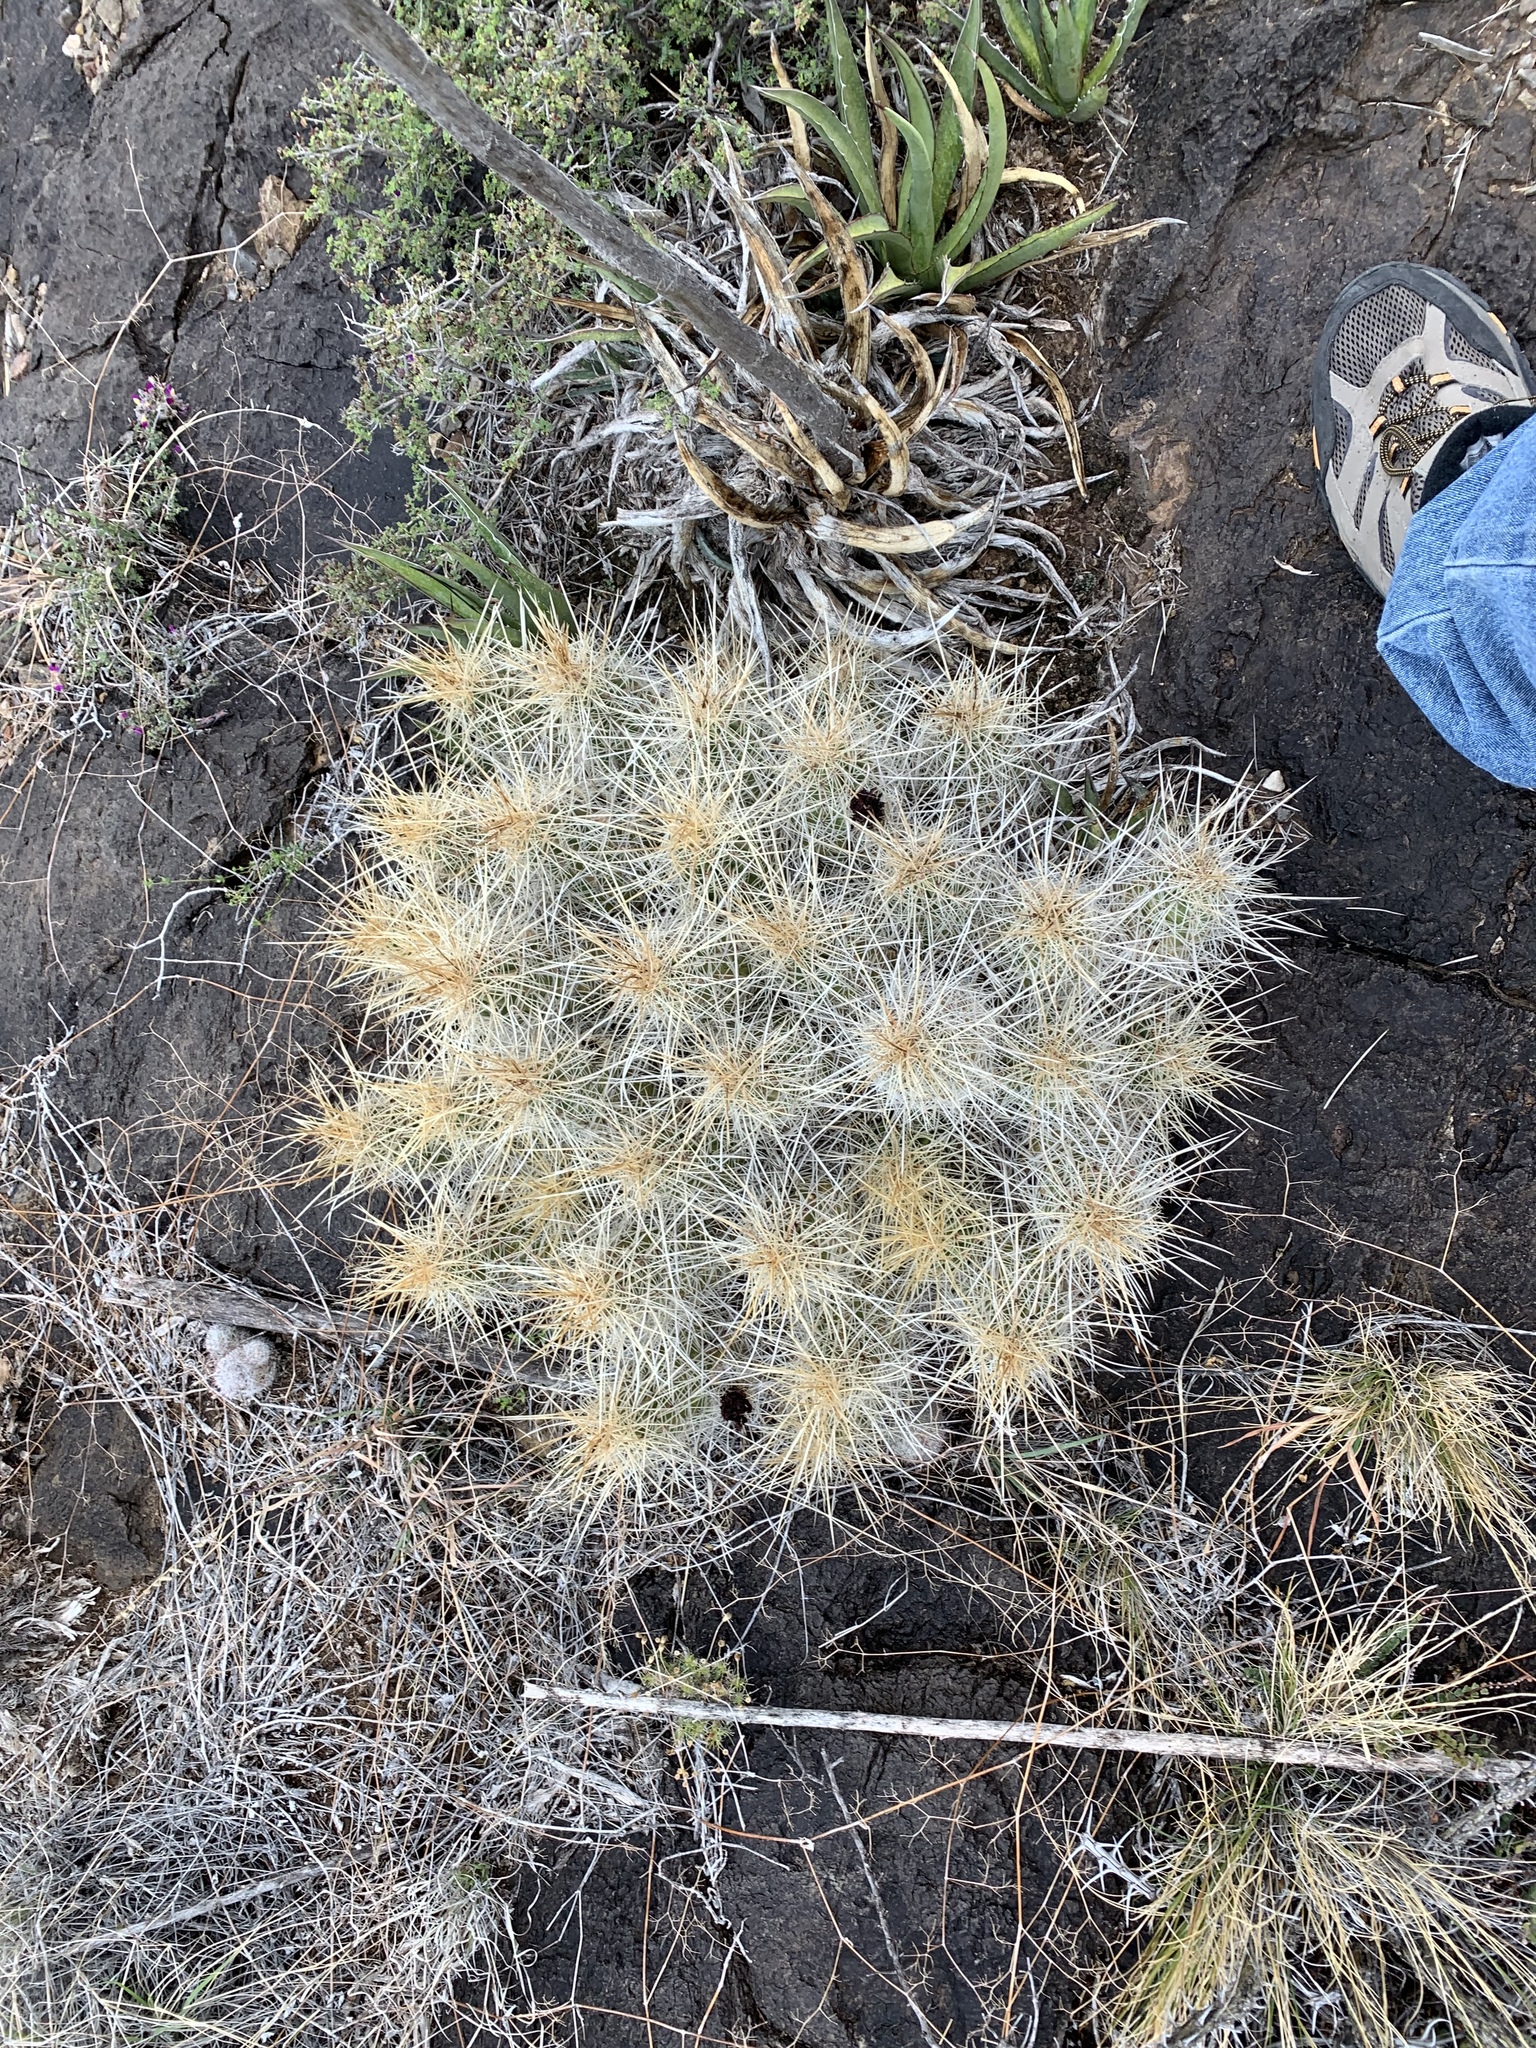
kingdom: Plantae
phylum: Tracheophyta
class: Magnoliopsida
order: Caryophyllales
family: Cactaceae
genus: Echinocereus
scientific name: Echinocereus stramineus
